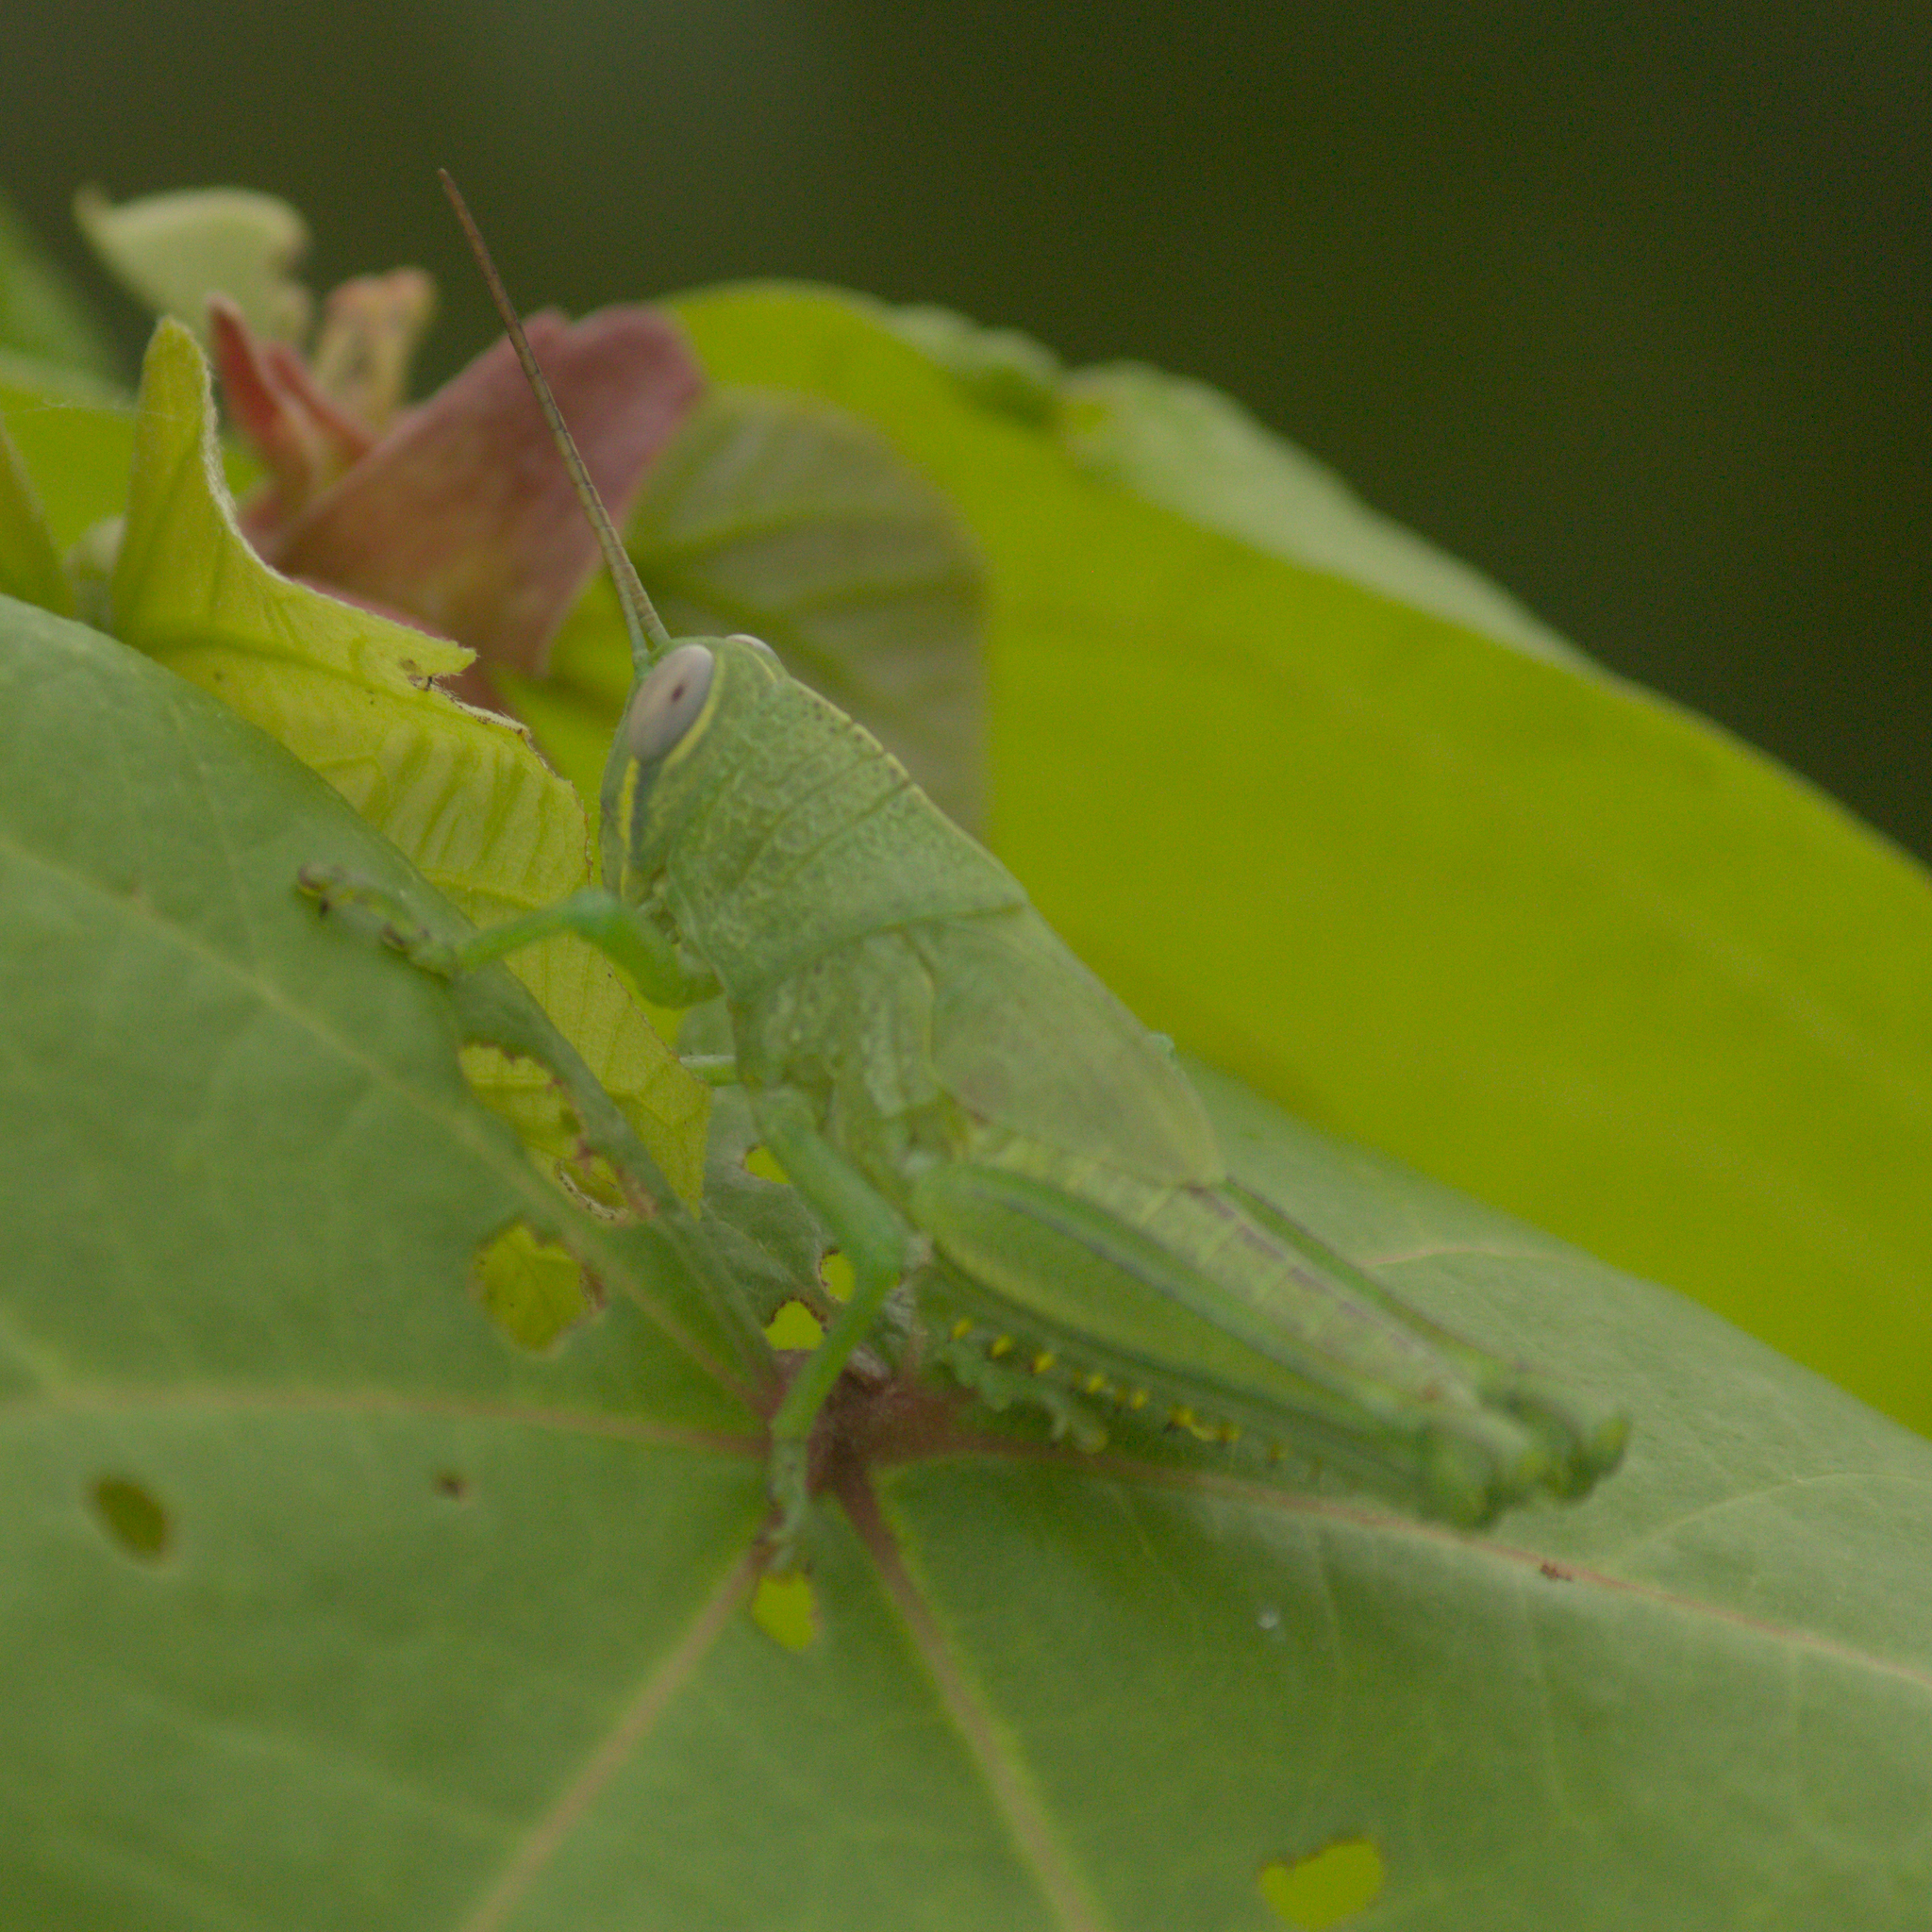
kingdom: Animalia
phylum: Arthropoda
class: Insecta
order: Orthoptera
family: Acrididae
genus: Valanga
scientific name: Valanga nigricornis
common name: Javanese bird grasshopper
